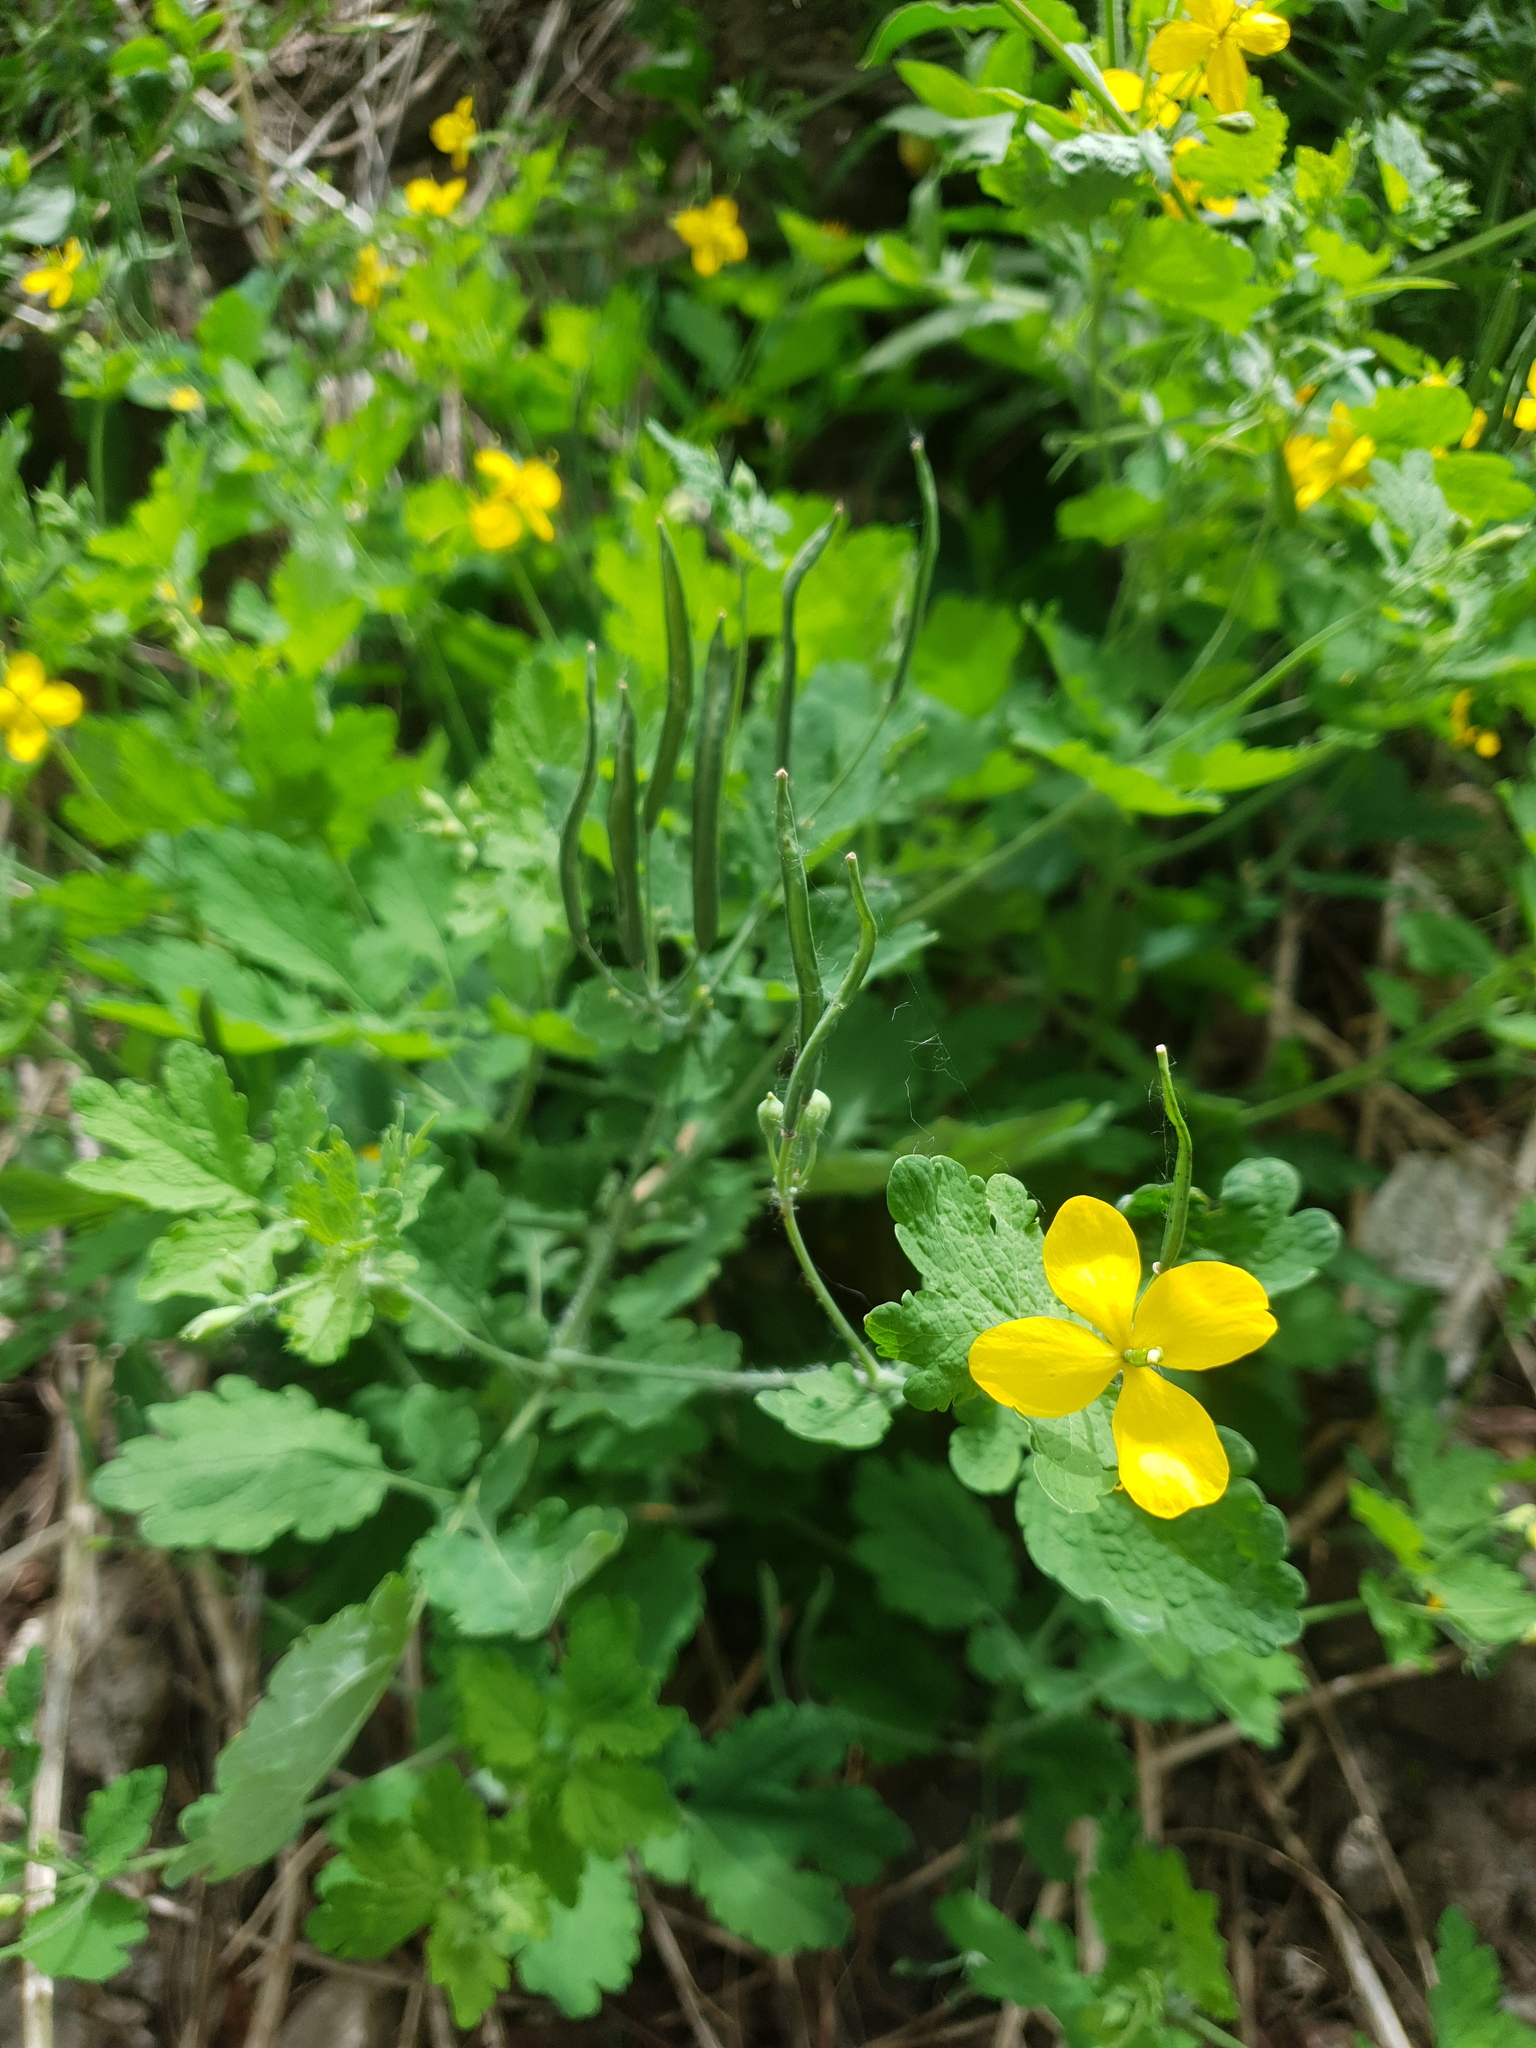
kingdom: Plantae
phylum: Tracheophyta
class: Magnoliopsida
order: Ranunculales
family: Papaveraceae
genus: Chelidonium
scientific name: Chelidonium majus
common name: Greater celandine
